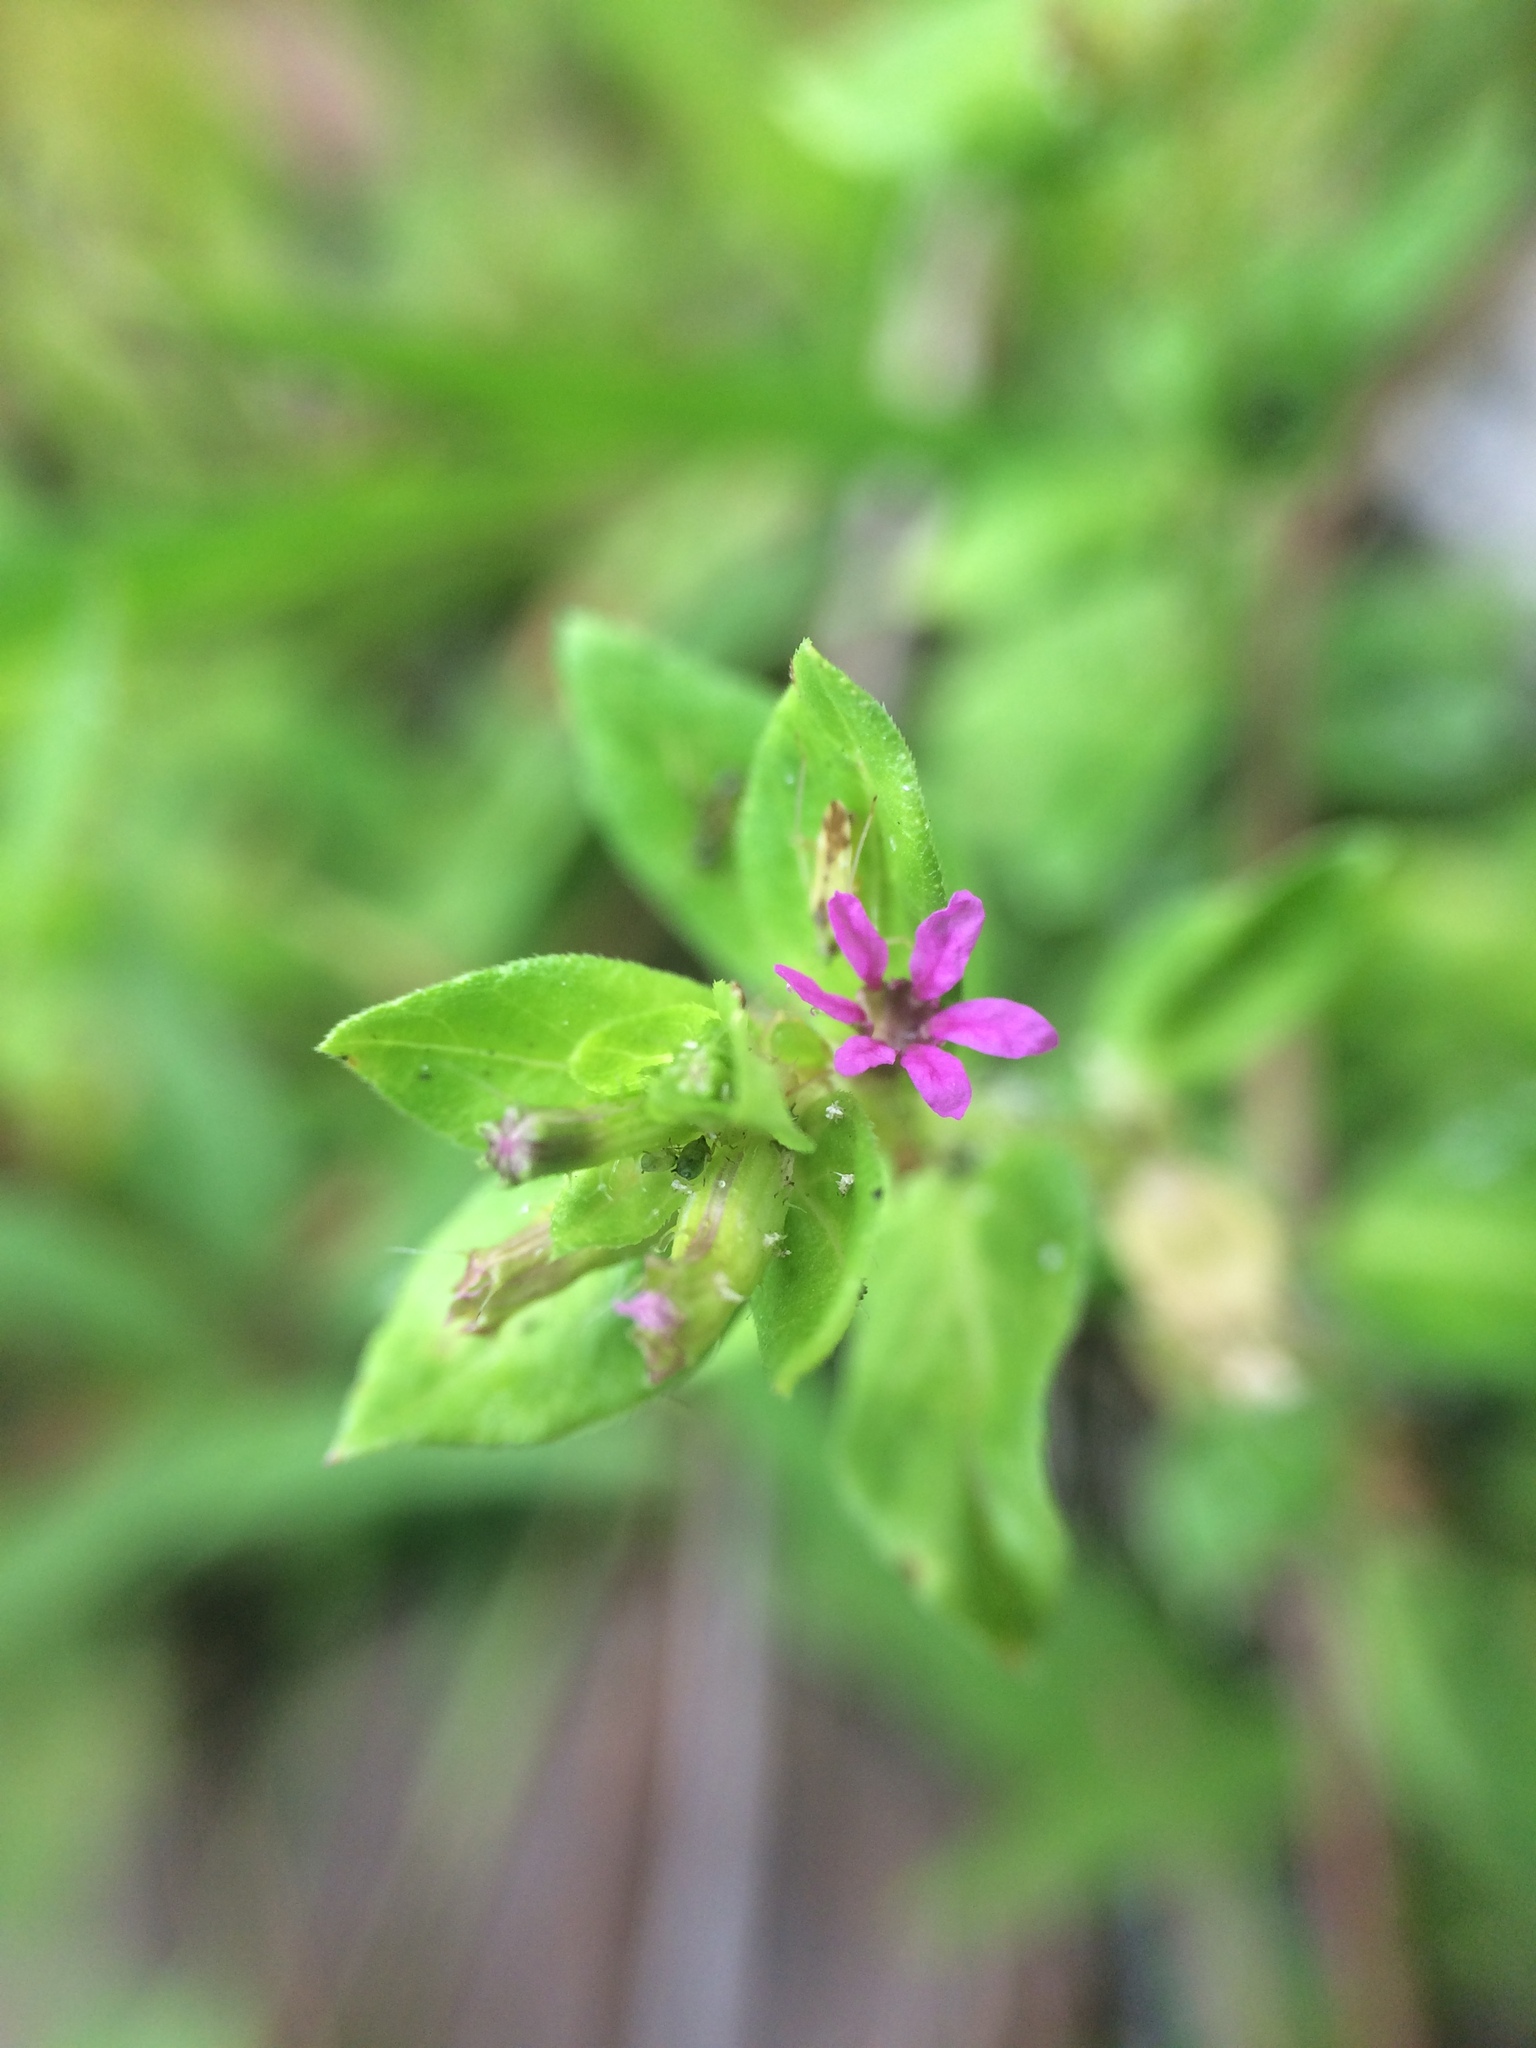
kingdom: Plantae
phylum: Tracheophyta
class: Magnoliopsida
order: Myrtales
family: Lythraceae
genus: Cuphea
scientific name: Cuphea carthagenensis
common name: Colombian waxweed
